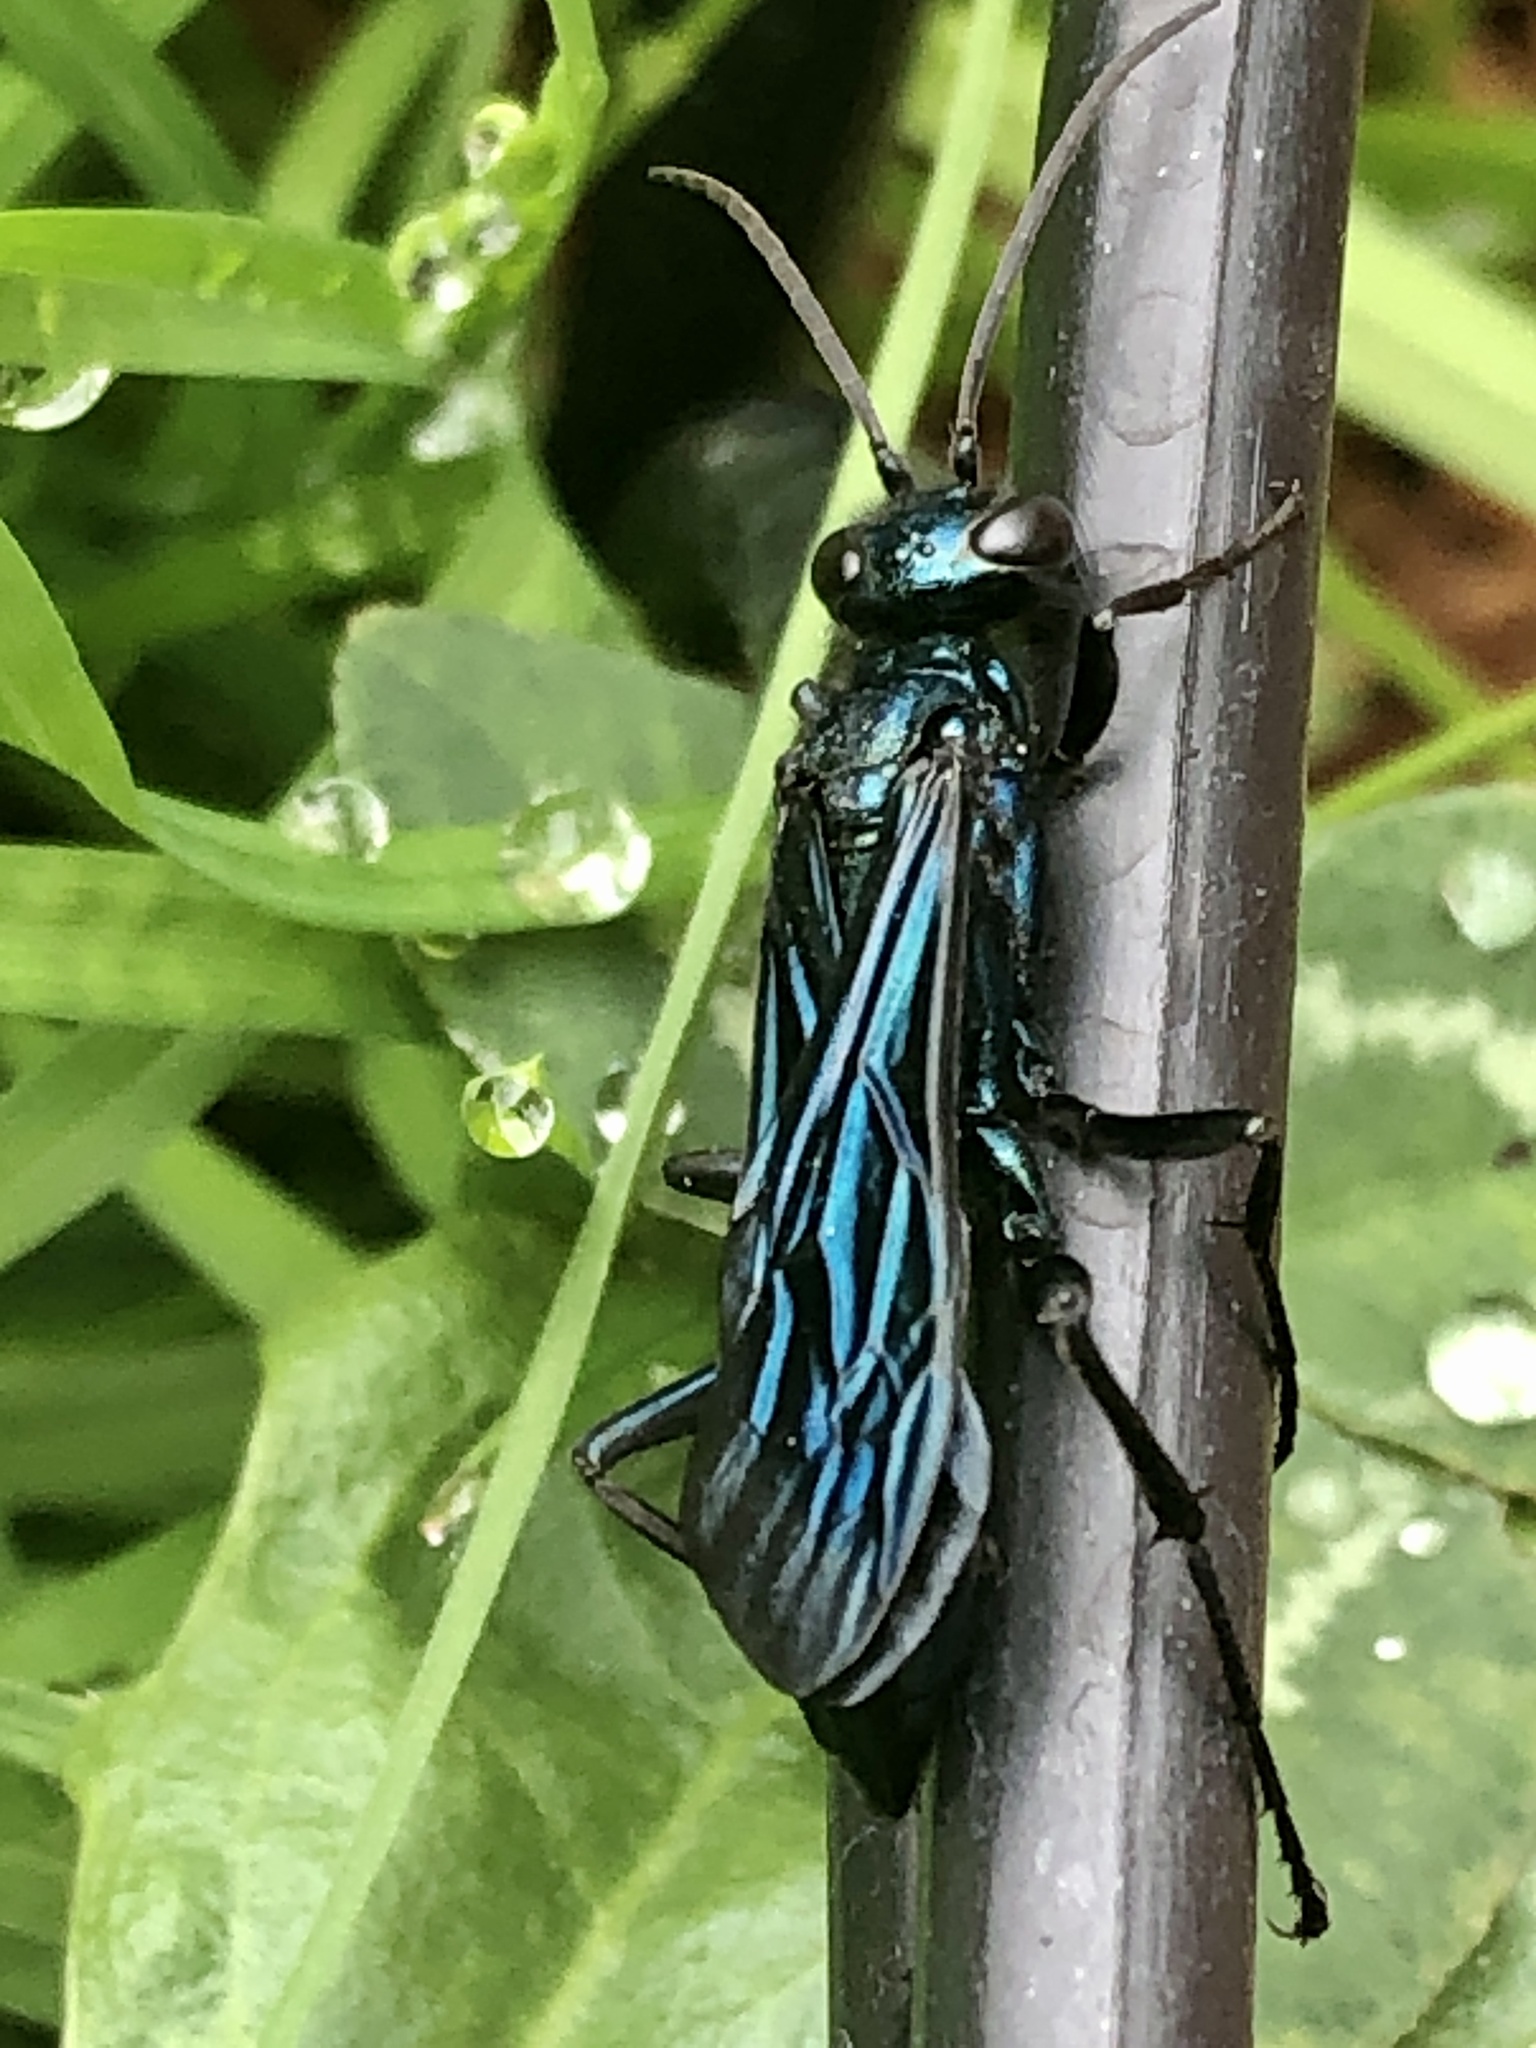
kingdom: Animalia
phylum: Arthropoda
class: Insecta
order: Hymenoptera
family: Sphecidae
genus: Chalybion
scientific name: Chalybion californicum
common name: Mud dauber
